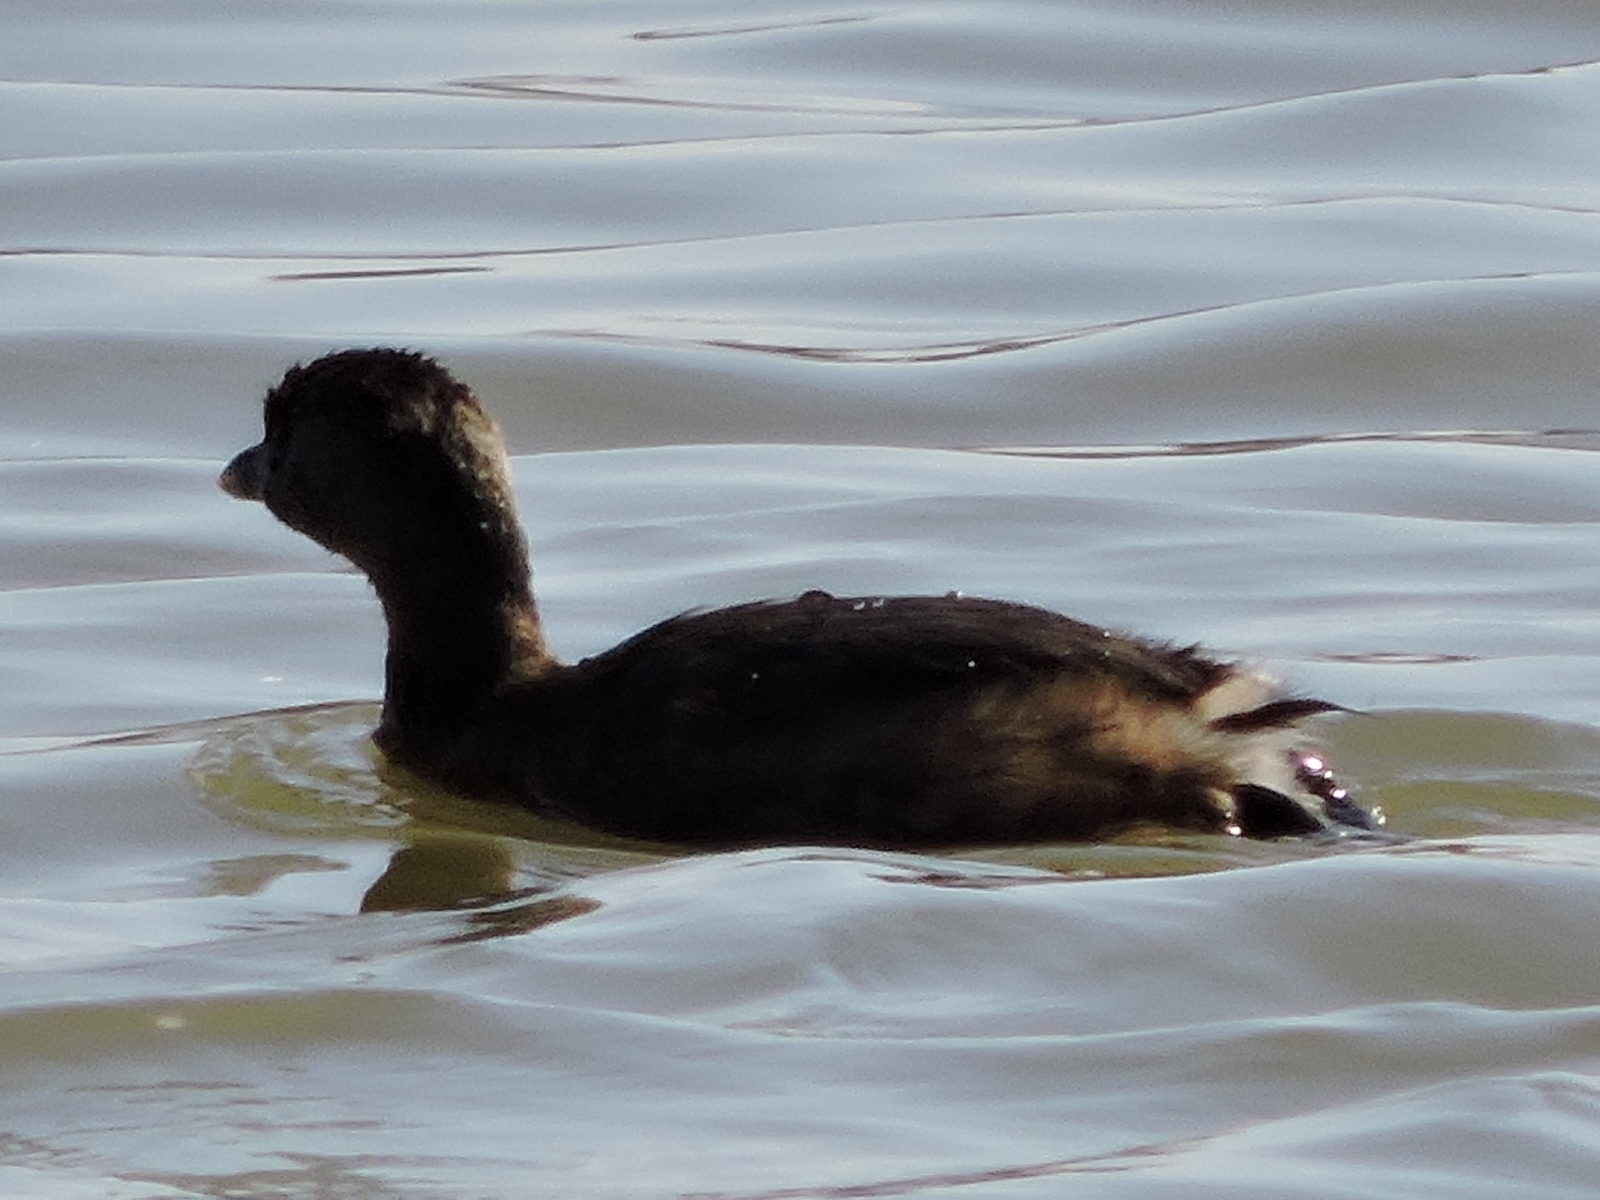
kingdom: Animalia
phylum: Chordata
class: Aves
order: Podicipediformes
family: Podicipedidae
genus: Podilymbus
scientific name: Podilymbus podiceps
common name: Pied-billed grebe
